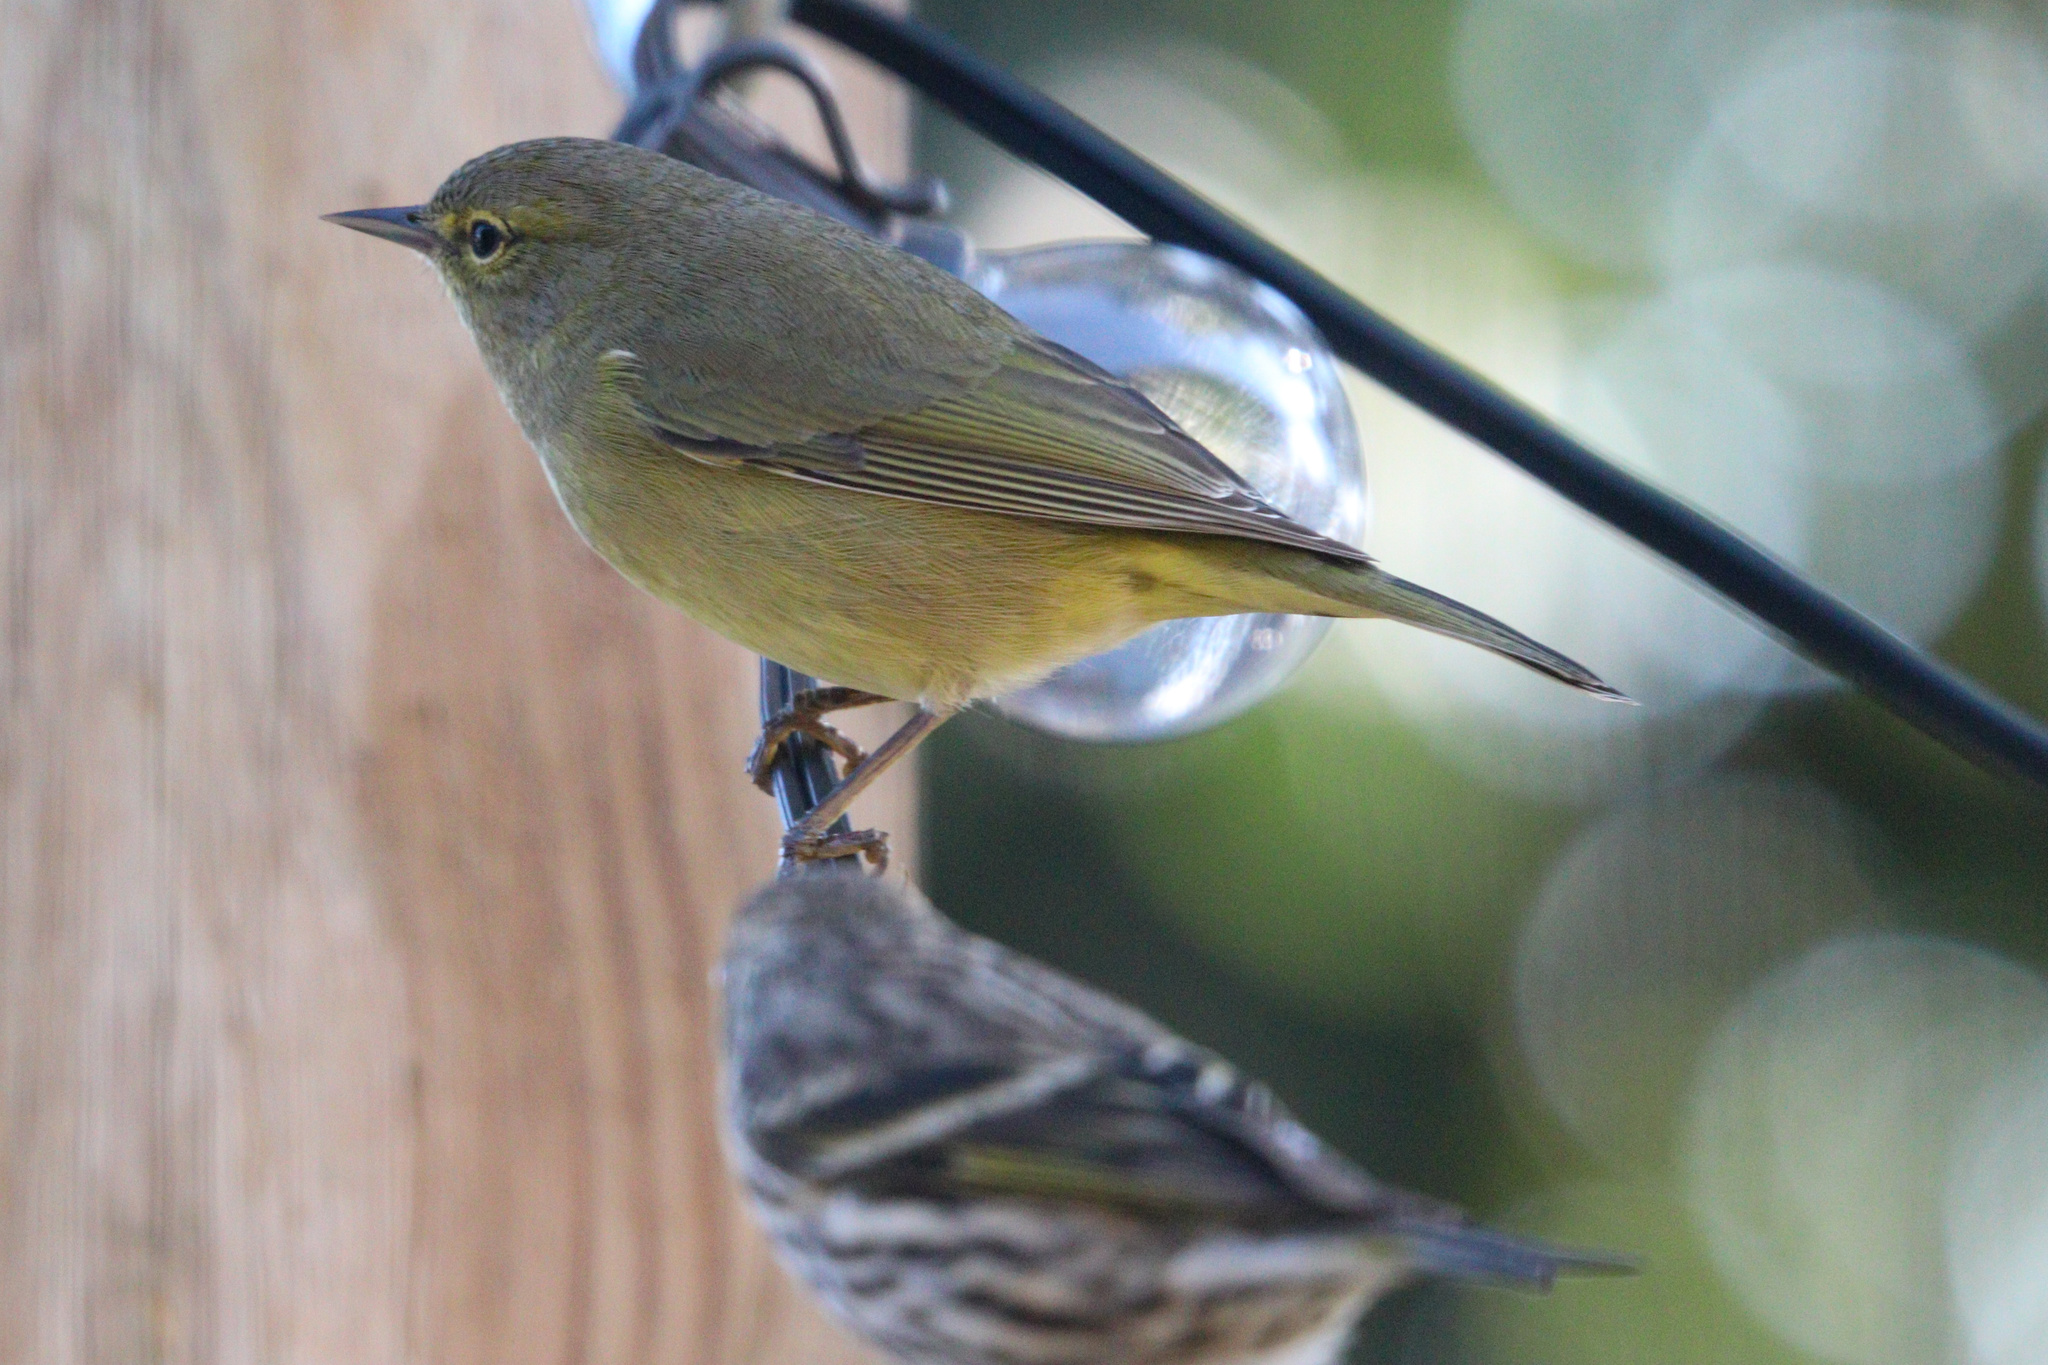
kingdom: Animalia
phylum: Chordata
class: Aves
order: Passeriformes
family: Parulidae
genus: Leiothlypis
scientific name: Leiothlypis celata
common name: Orange-crowned warbler
